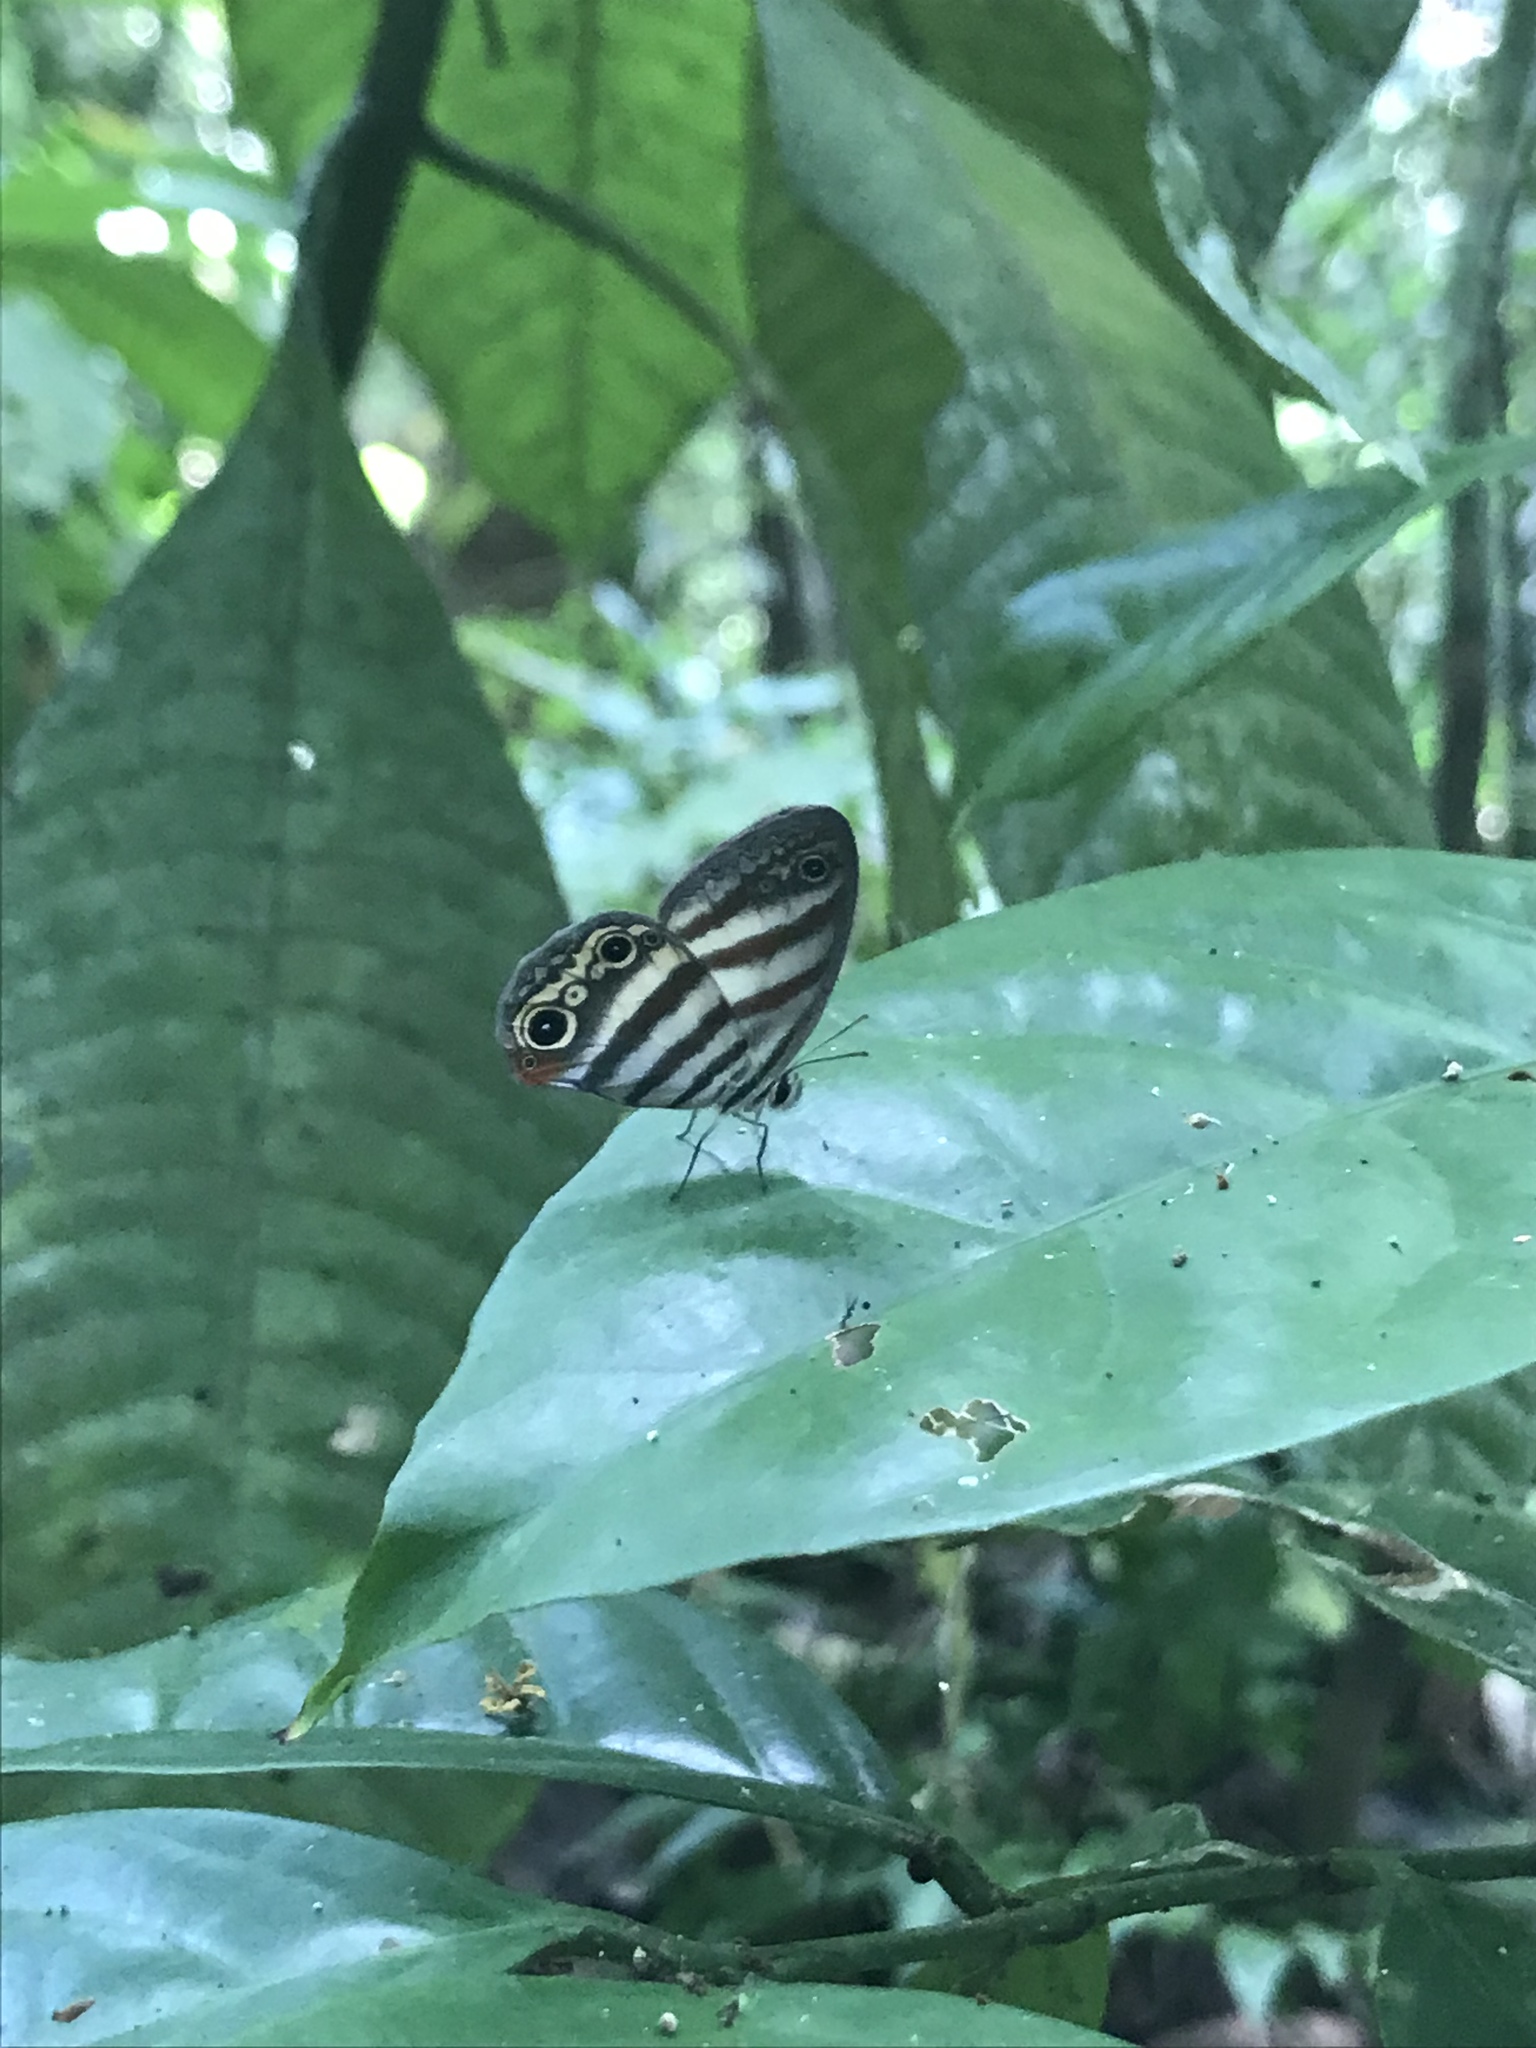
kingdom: Animalia
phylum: Arthropoda
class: Insecta
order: Lepidoptera
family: Nymphalidae
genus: Pareuptychia
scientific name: Pareuptychia hesione
